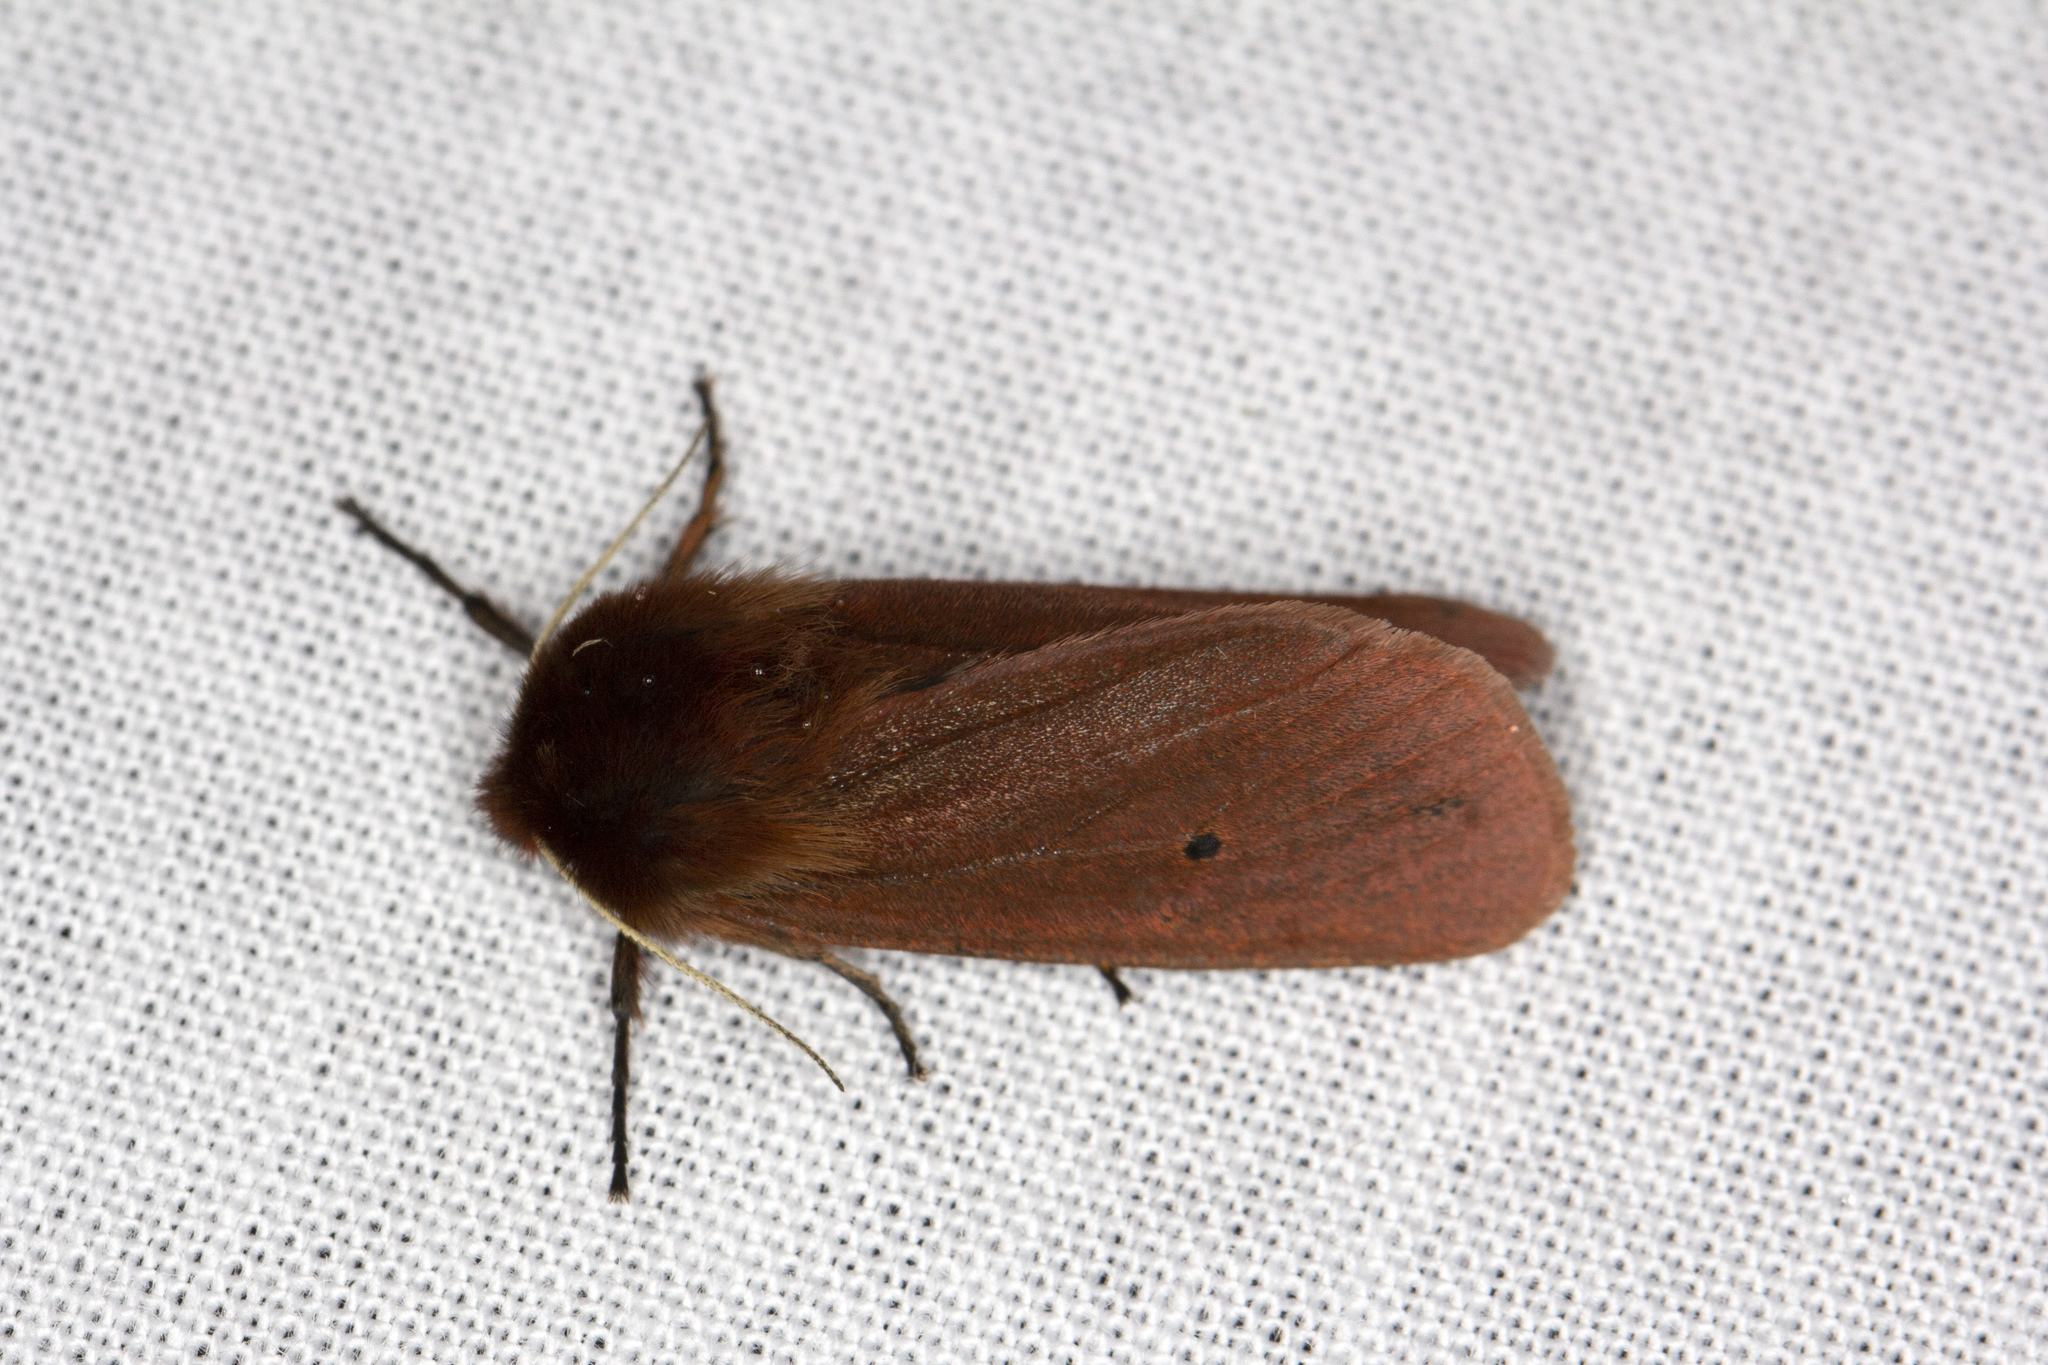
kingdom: Animalia
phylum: Arthropoda
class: Insecta
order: Lepidoptera
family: Erebidae
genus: Phragmatobia
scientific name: Phragmatobia fuliginosa
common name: Ruby tiger
